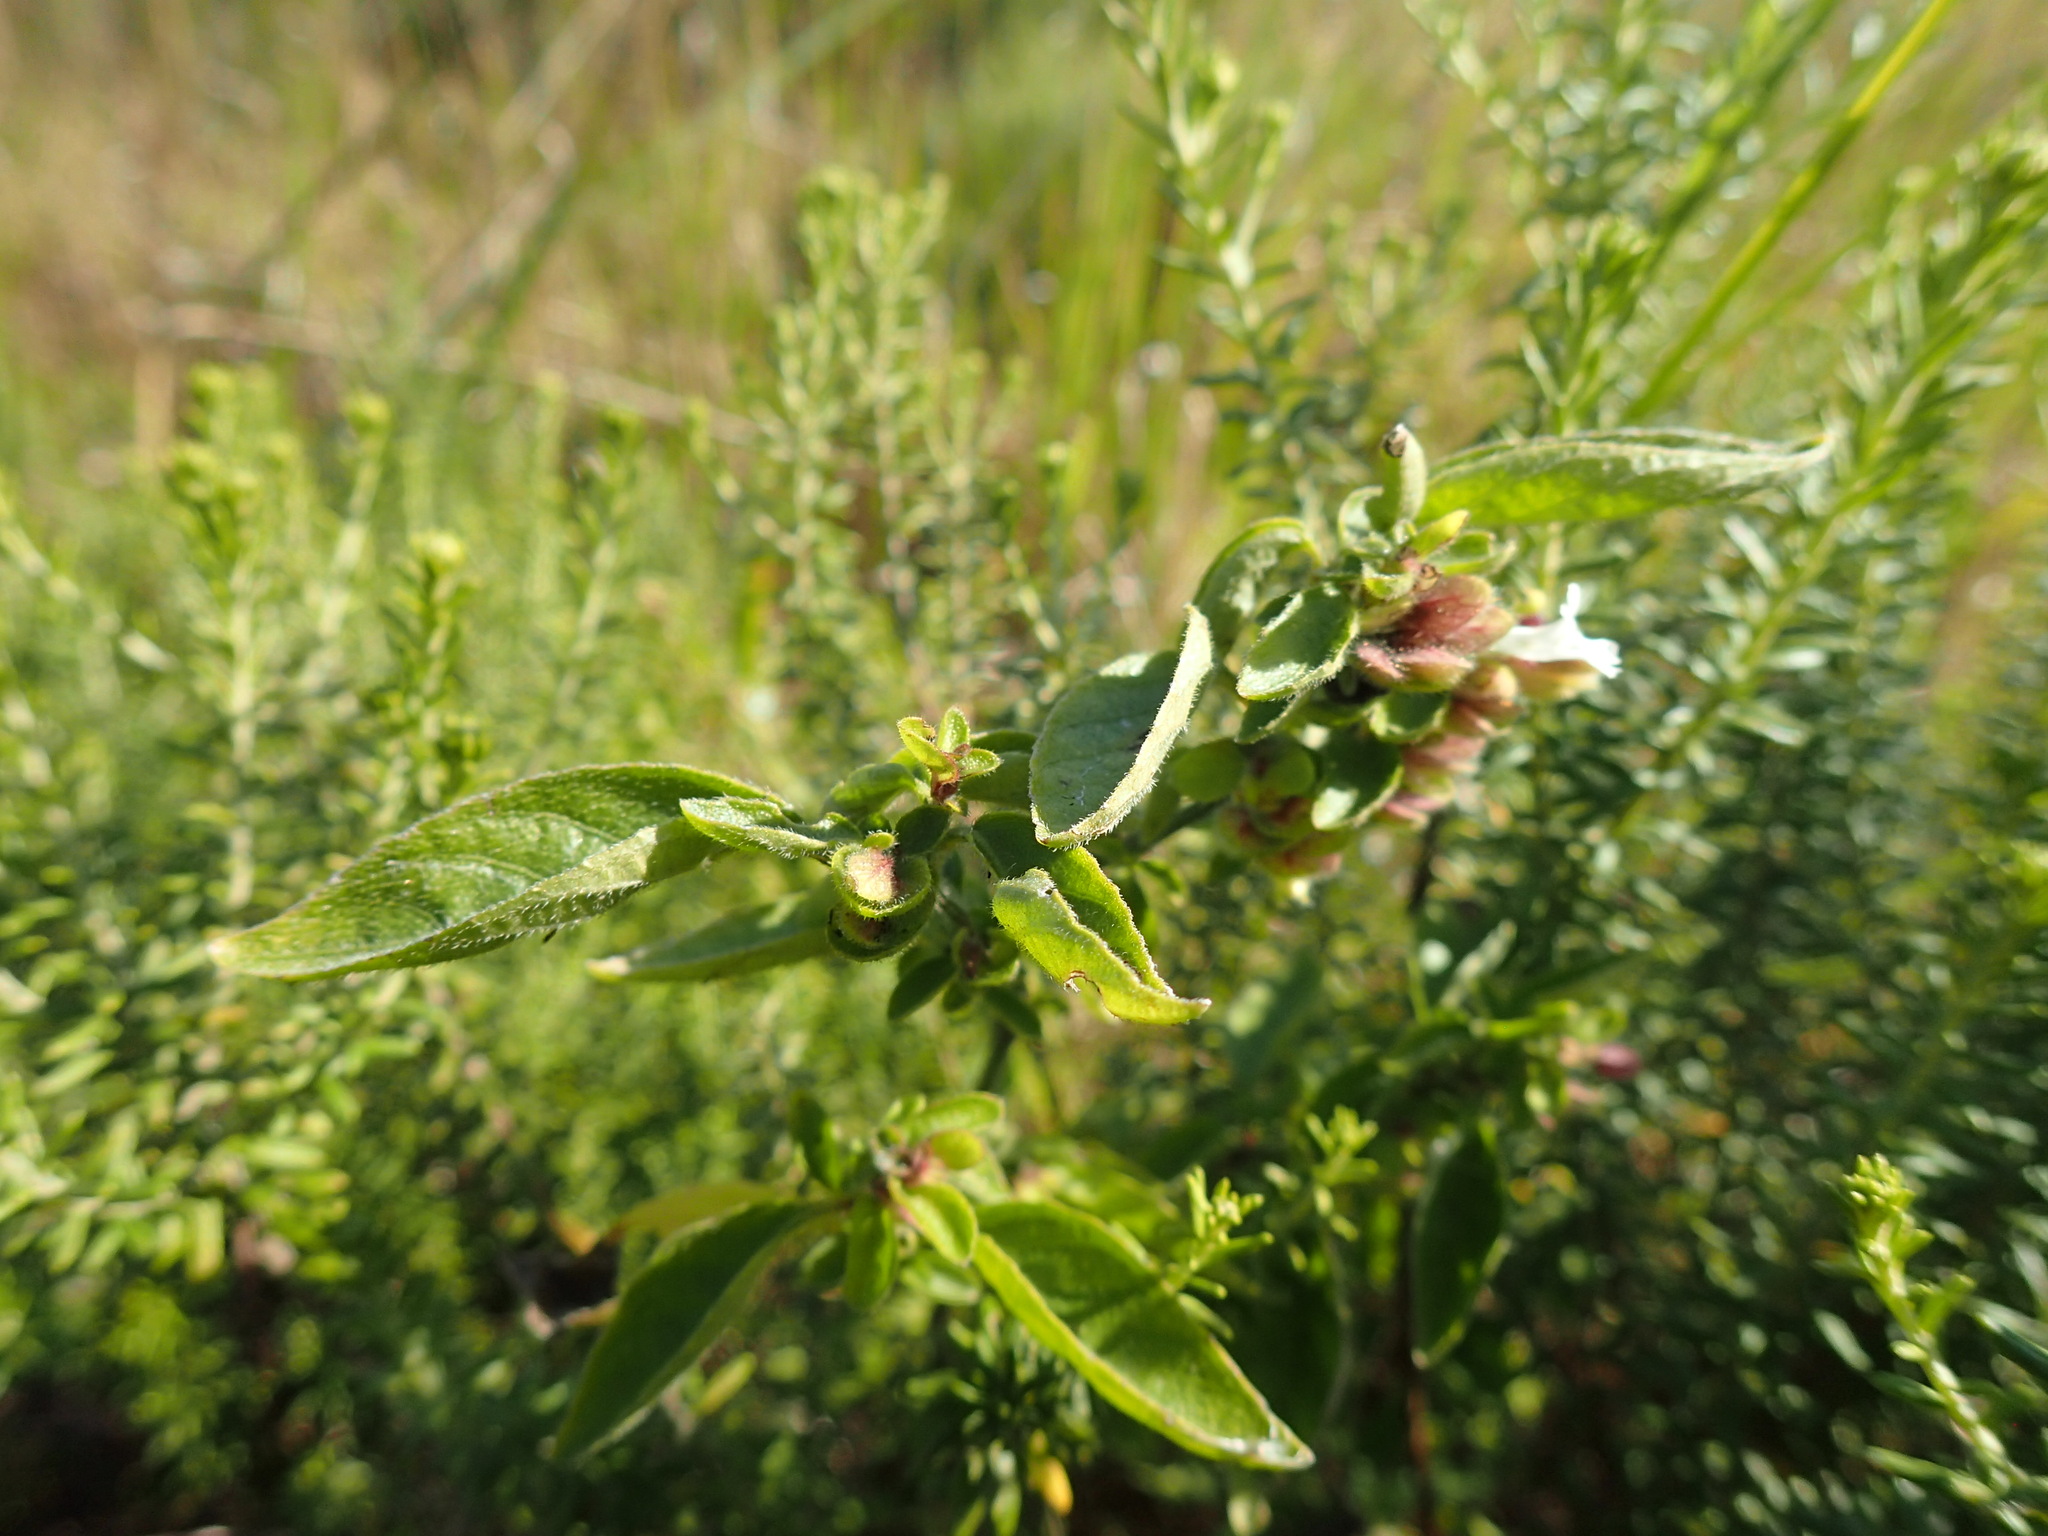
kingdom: Plantae
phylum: Tracheophyta
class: Magnoliopsida
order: Lamiales
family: Acanthaceae
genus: Phaulopsis
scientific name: Phaulopsis imbricata
